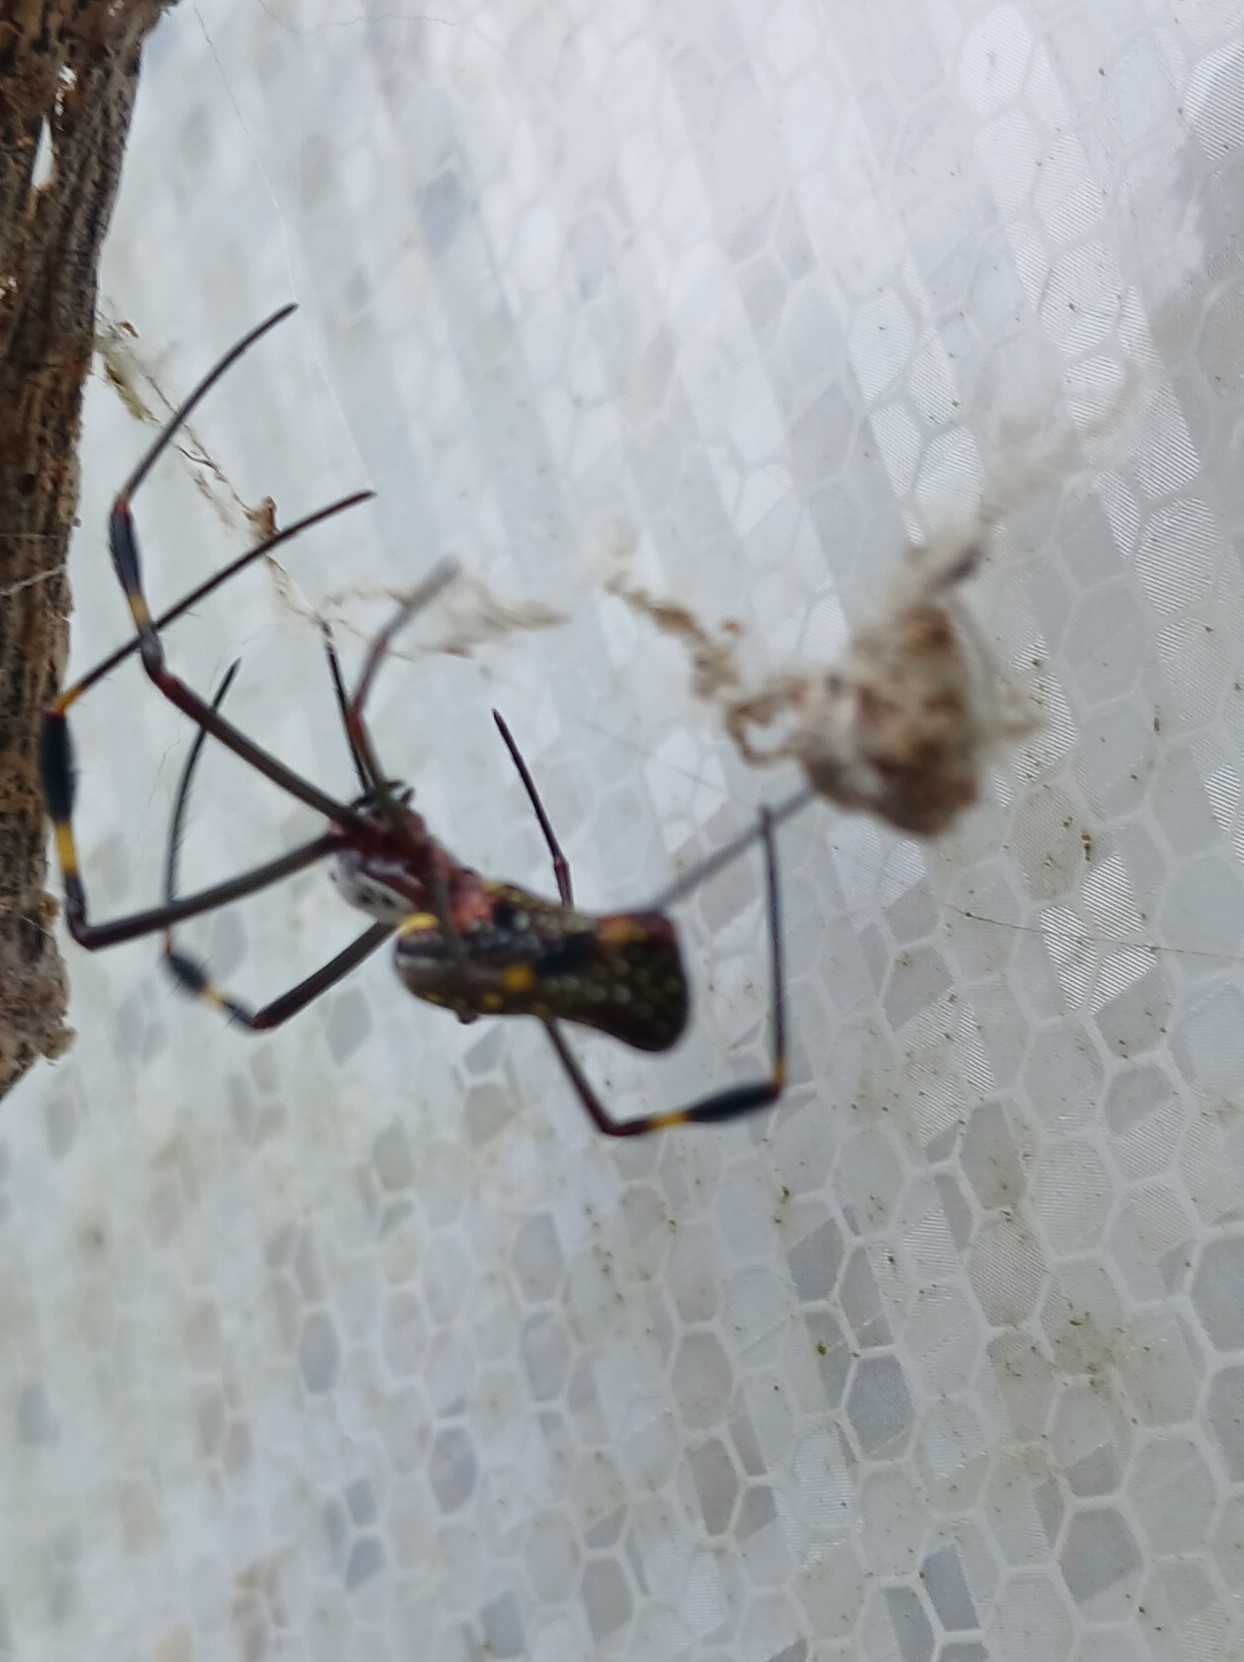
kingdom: Animalia
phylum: Arthropoda
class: Arachnida
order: Araneae
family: Araneidae
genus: Trichonephila
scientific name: Trichonephila clavipes
